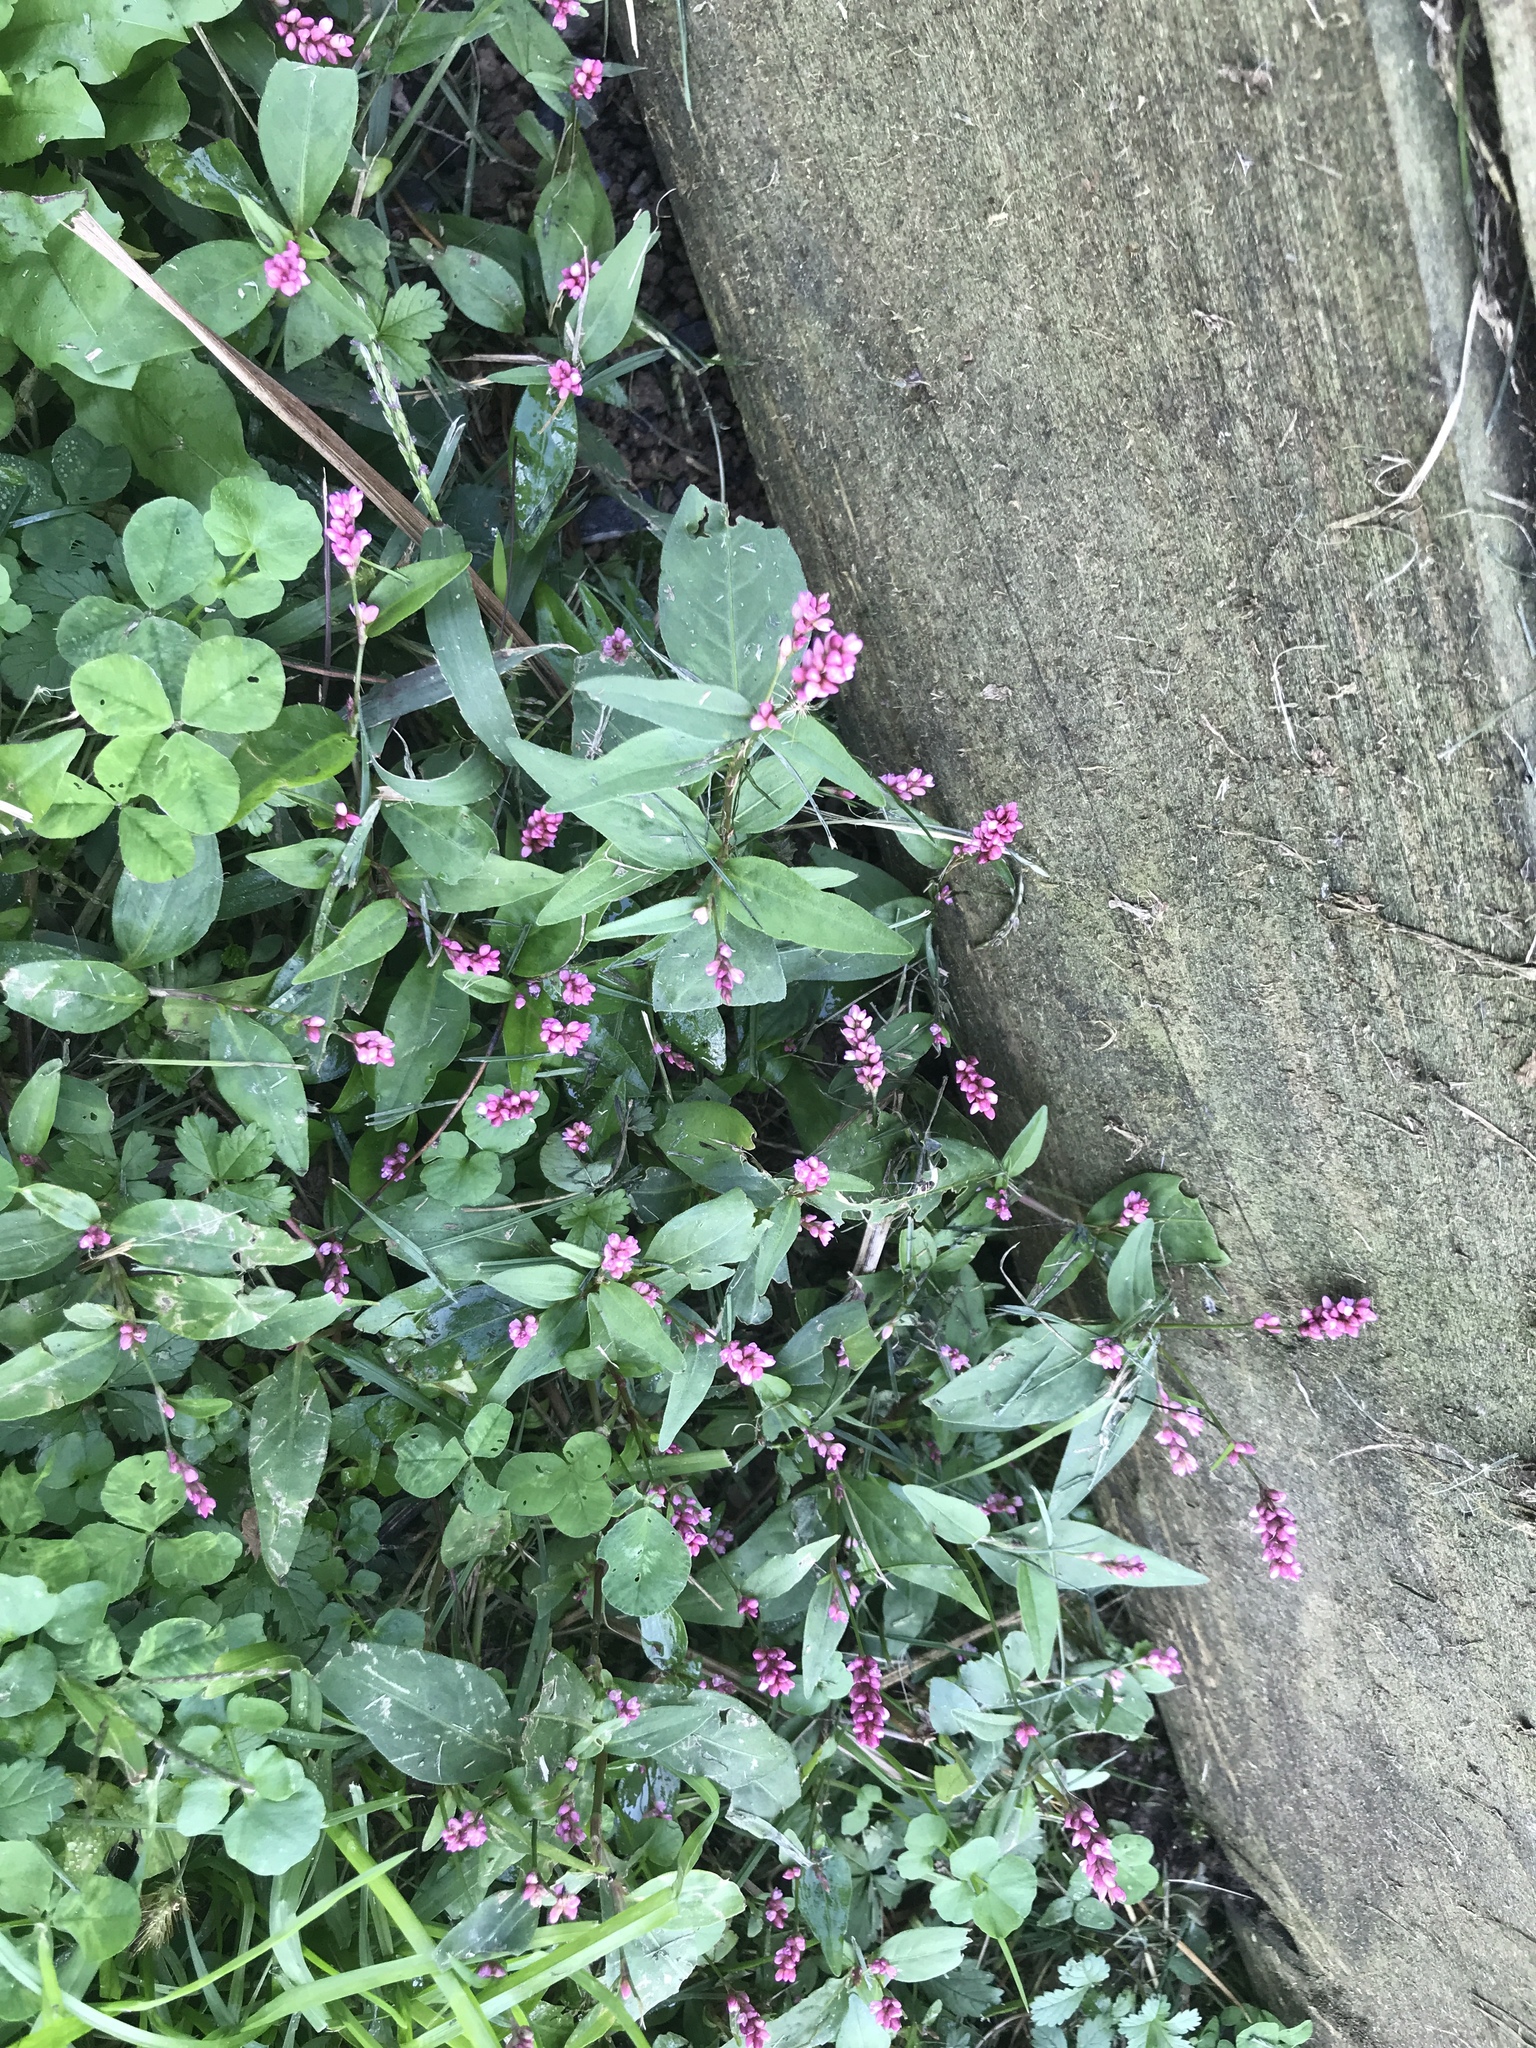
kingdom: Plantae
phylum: Tracheophyta
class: Magnoliopsida
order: Caryophyllales
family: Polygonaceae
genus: Persicaria
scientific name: Persicaria longiseta
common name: Bristly lady's-thumb
